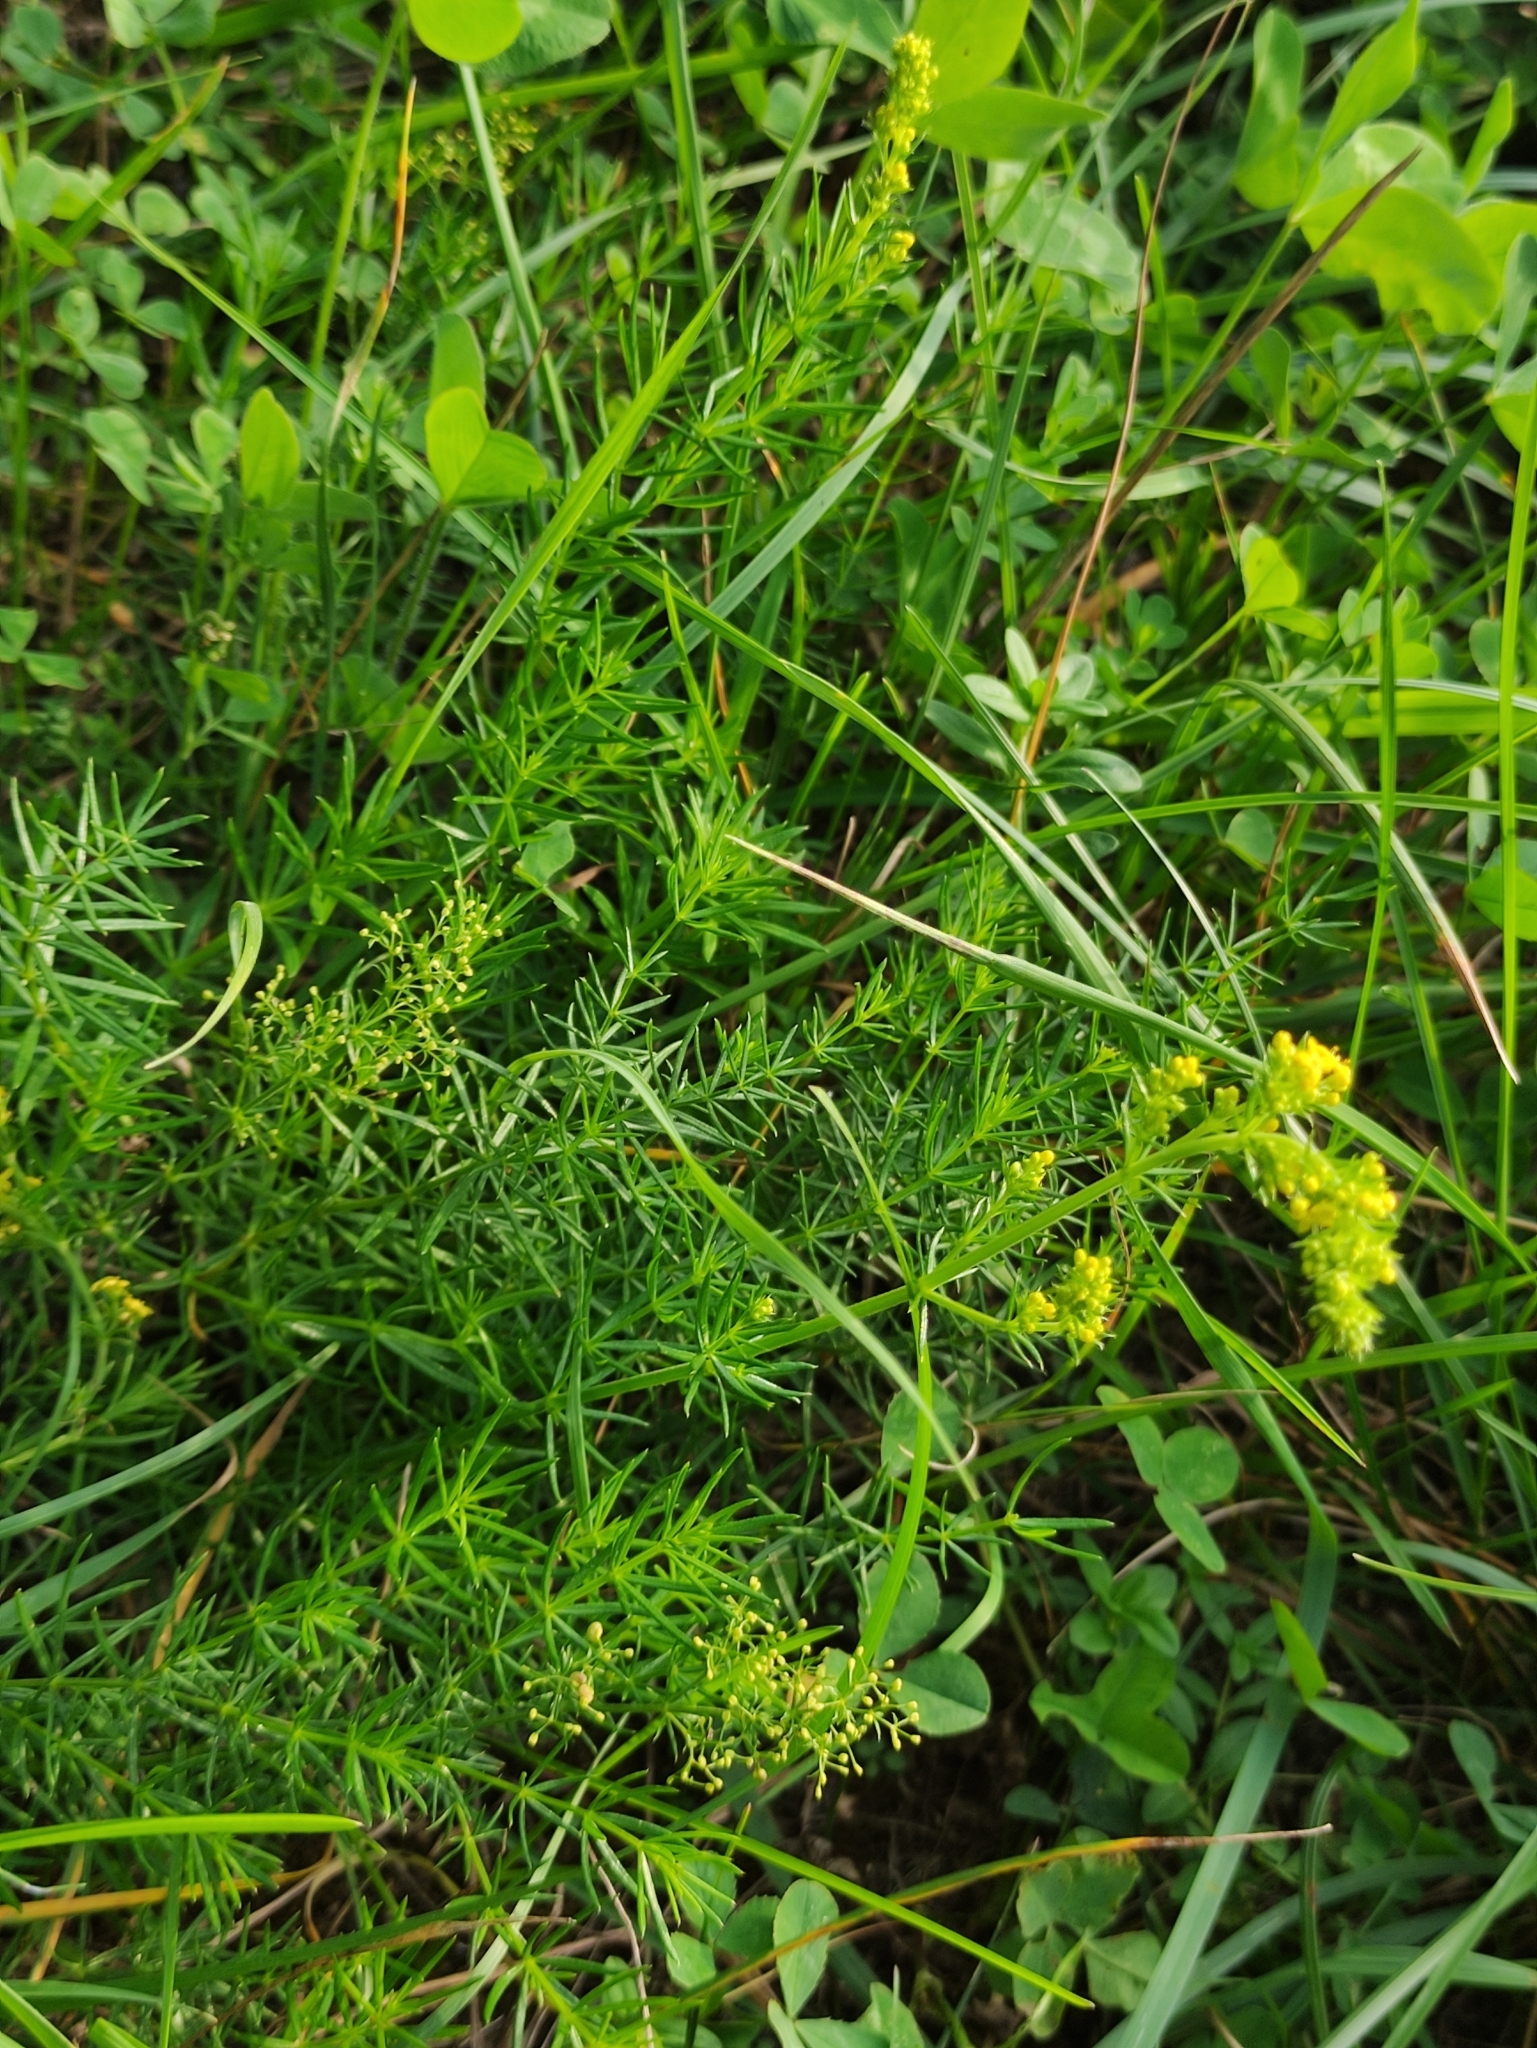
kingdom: Plantae
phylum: Tracheophyta
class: Magnoliopsida
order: Gentianales
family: Rubiaceae
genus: Galium
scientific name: Galium verum
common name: Lady's bedstraw
